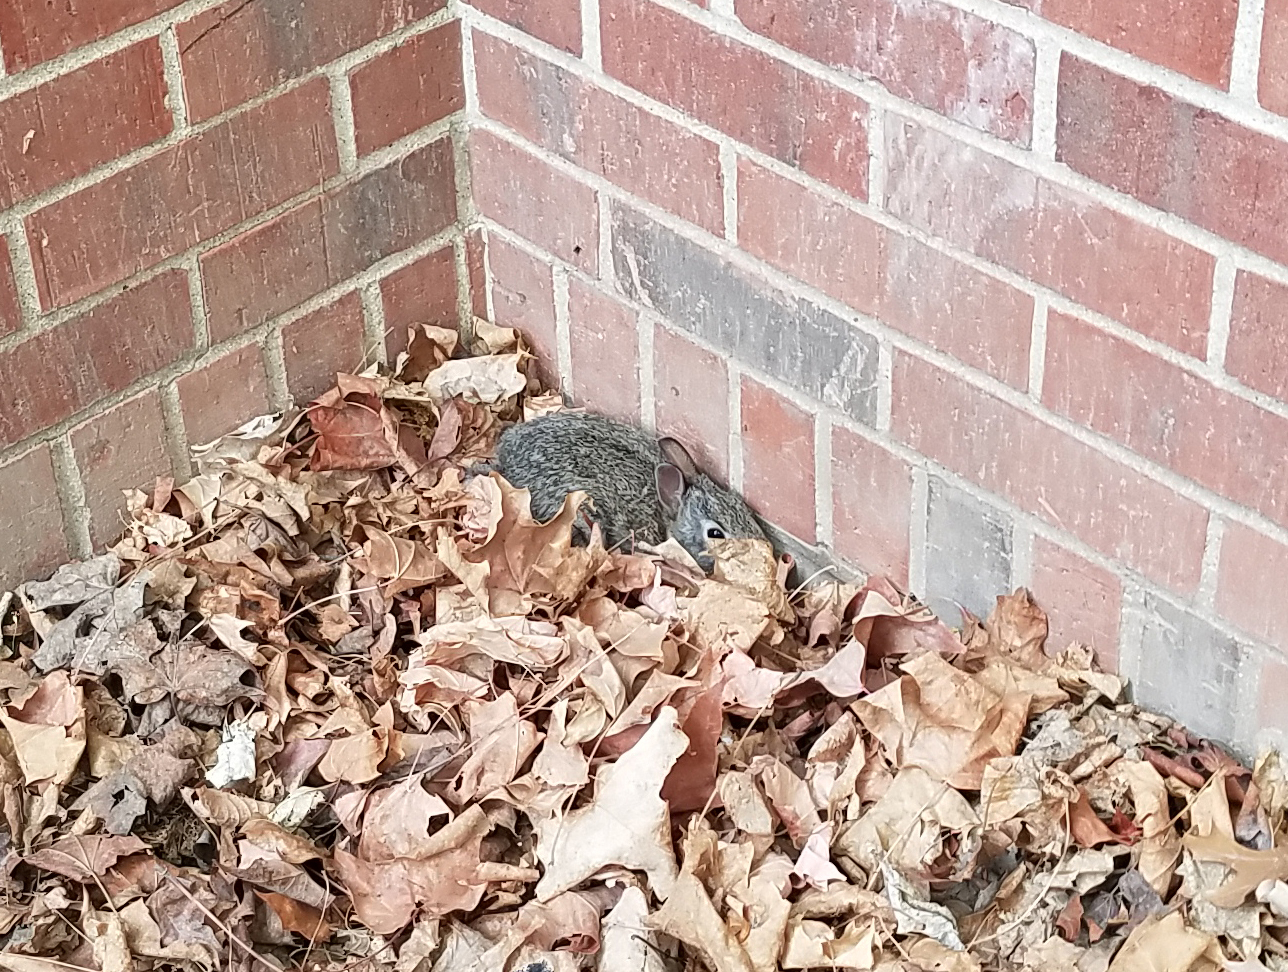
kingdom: Animalia
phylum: Chordata
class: Mammalia
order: Lagomorpha
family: Leporidae
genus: Sylvilagus
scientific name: Sylvilagus floridanus
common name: Eastern cottontail
